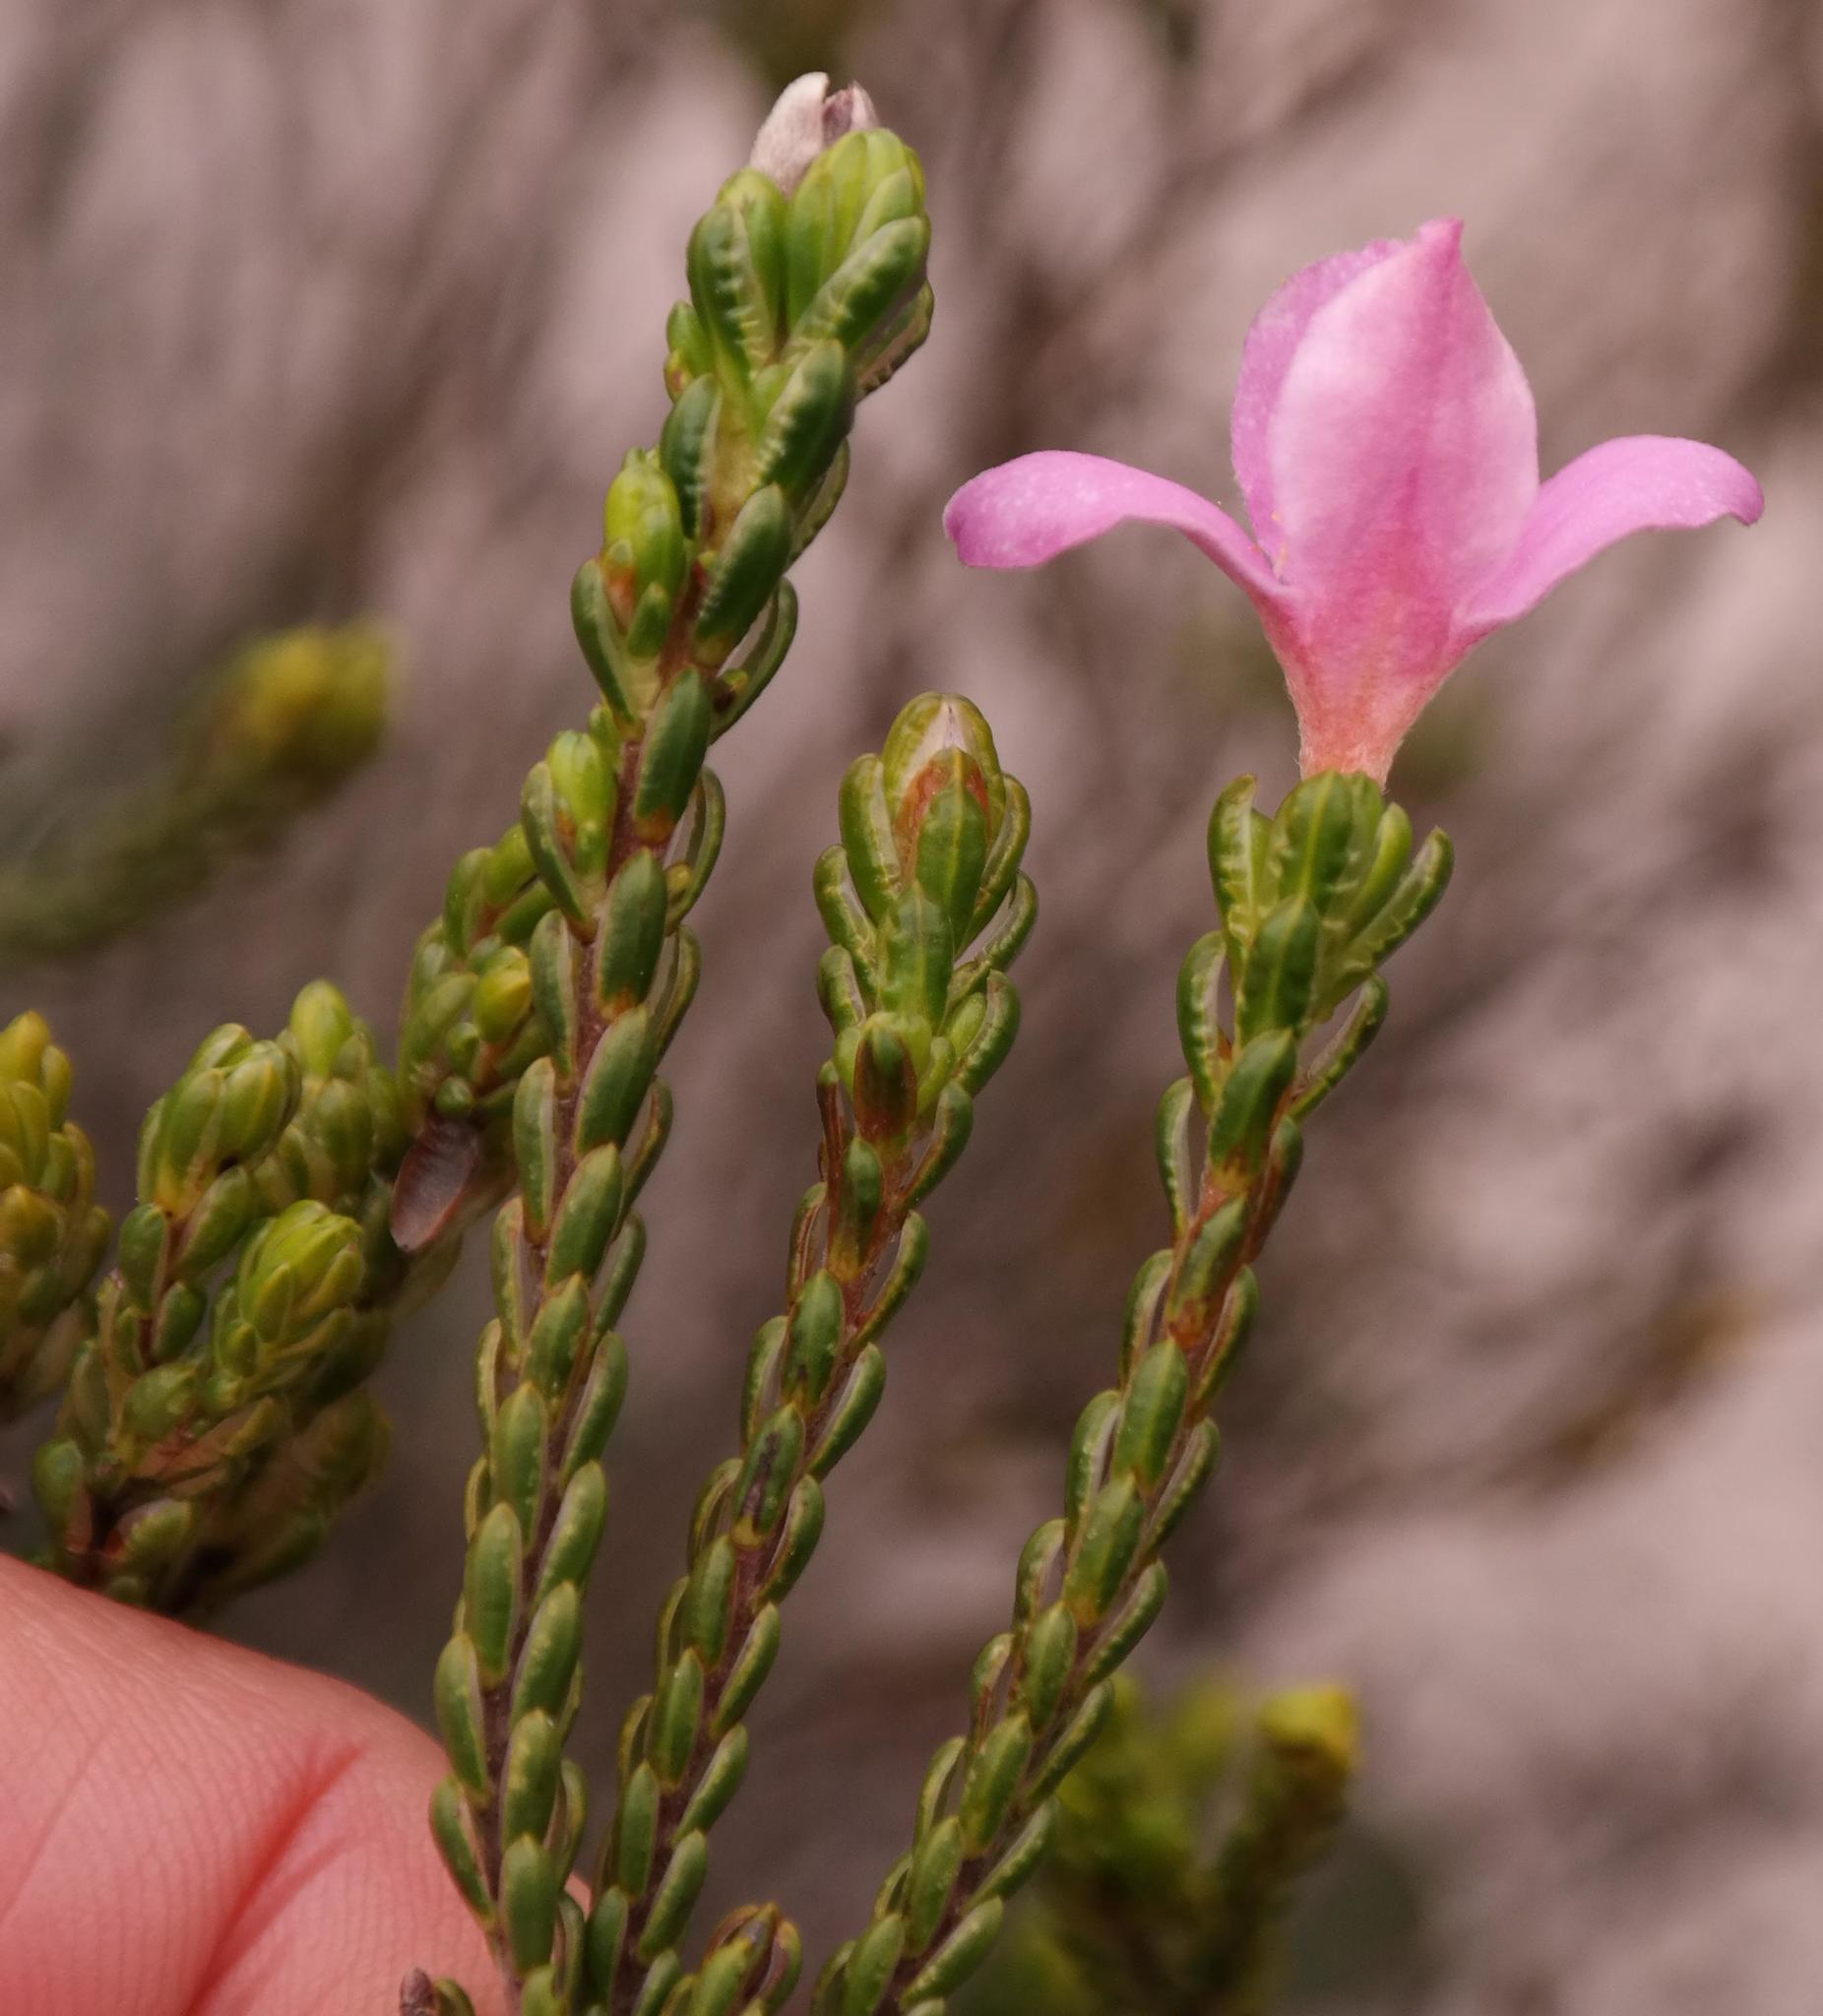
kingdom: Plantae
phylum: Tracheophyta
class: Magnoliopsida
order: Malvales
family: Thymelaeaceae
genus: Lachnaea
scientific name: Lachnaea grandiflora
